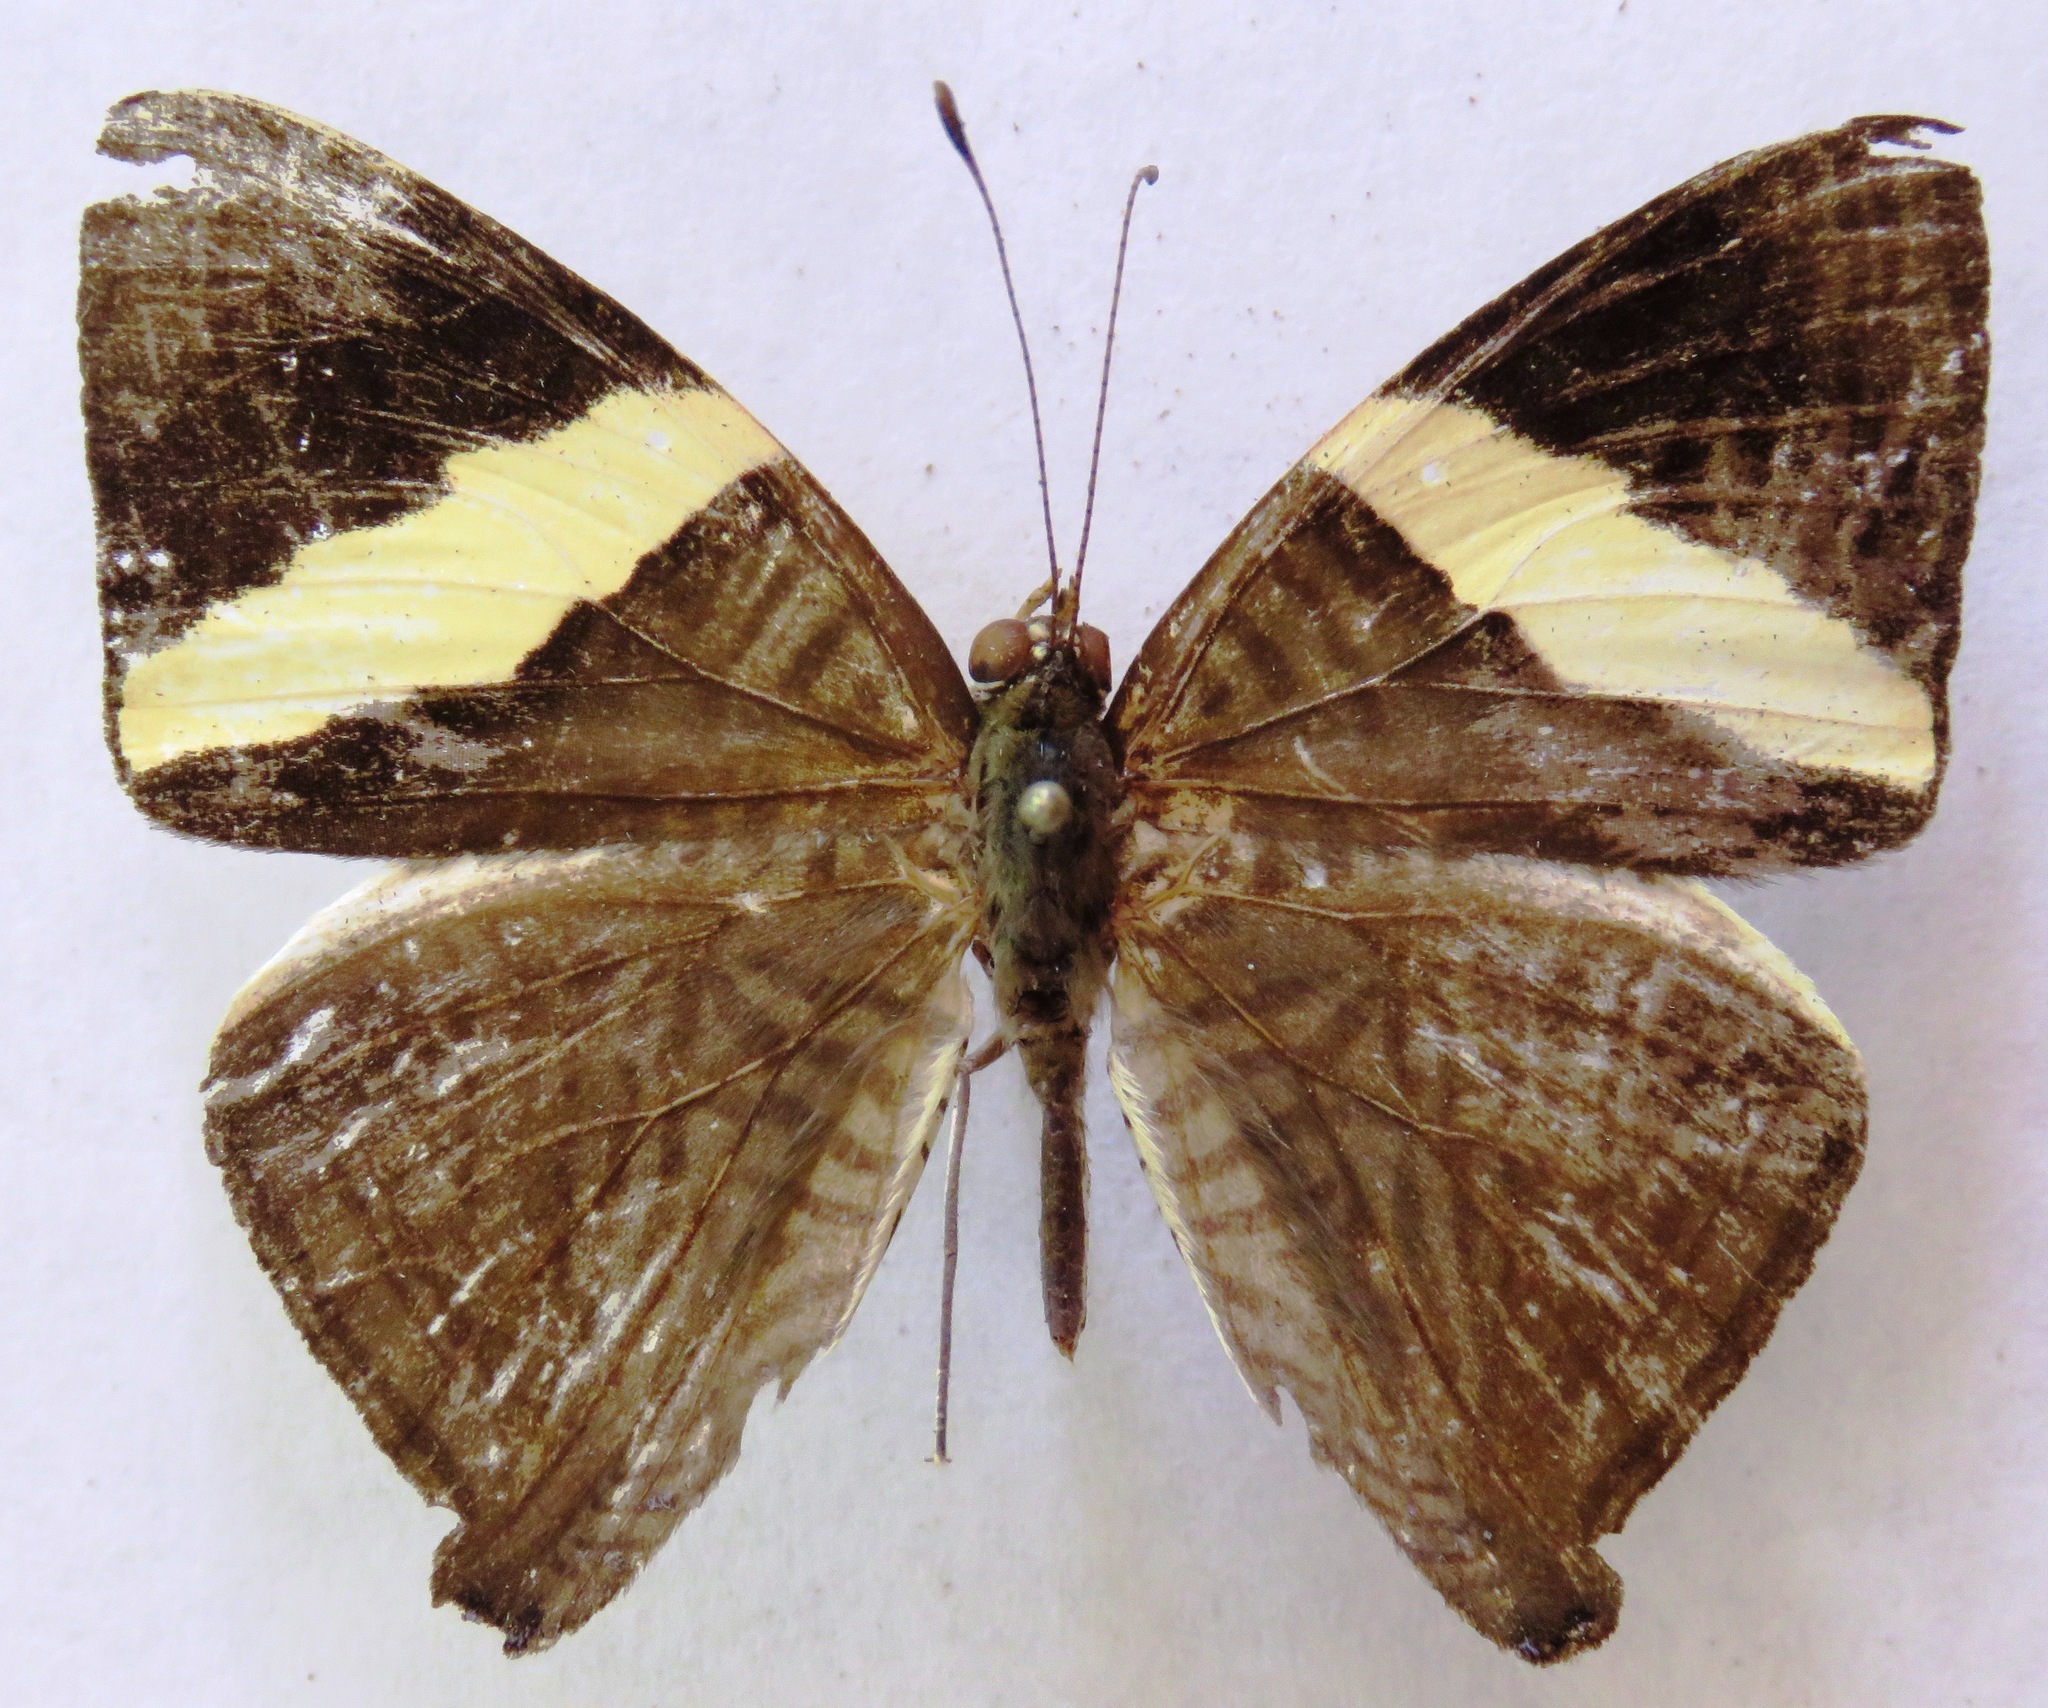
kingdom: Animalia
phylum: Arthropoda
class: Insecta
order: Lepidoptera
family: Nymphalidae
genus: Colobura
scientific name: Colobura dirce
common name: Dirce beauty
